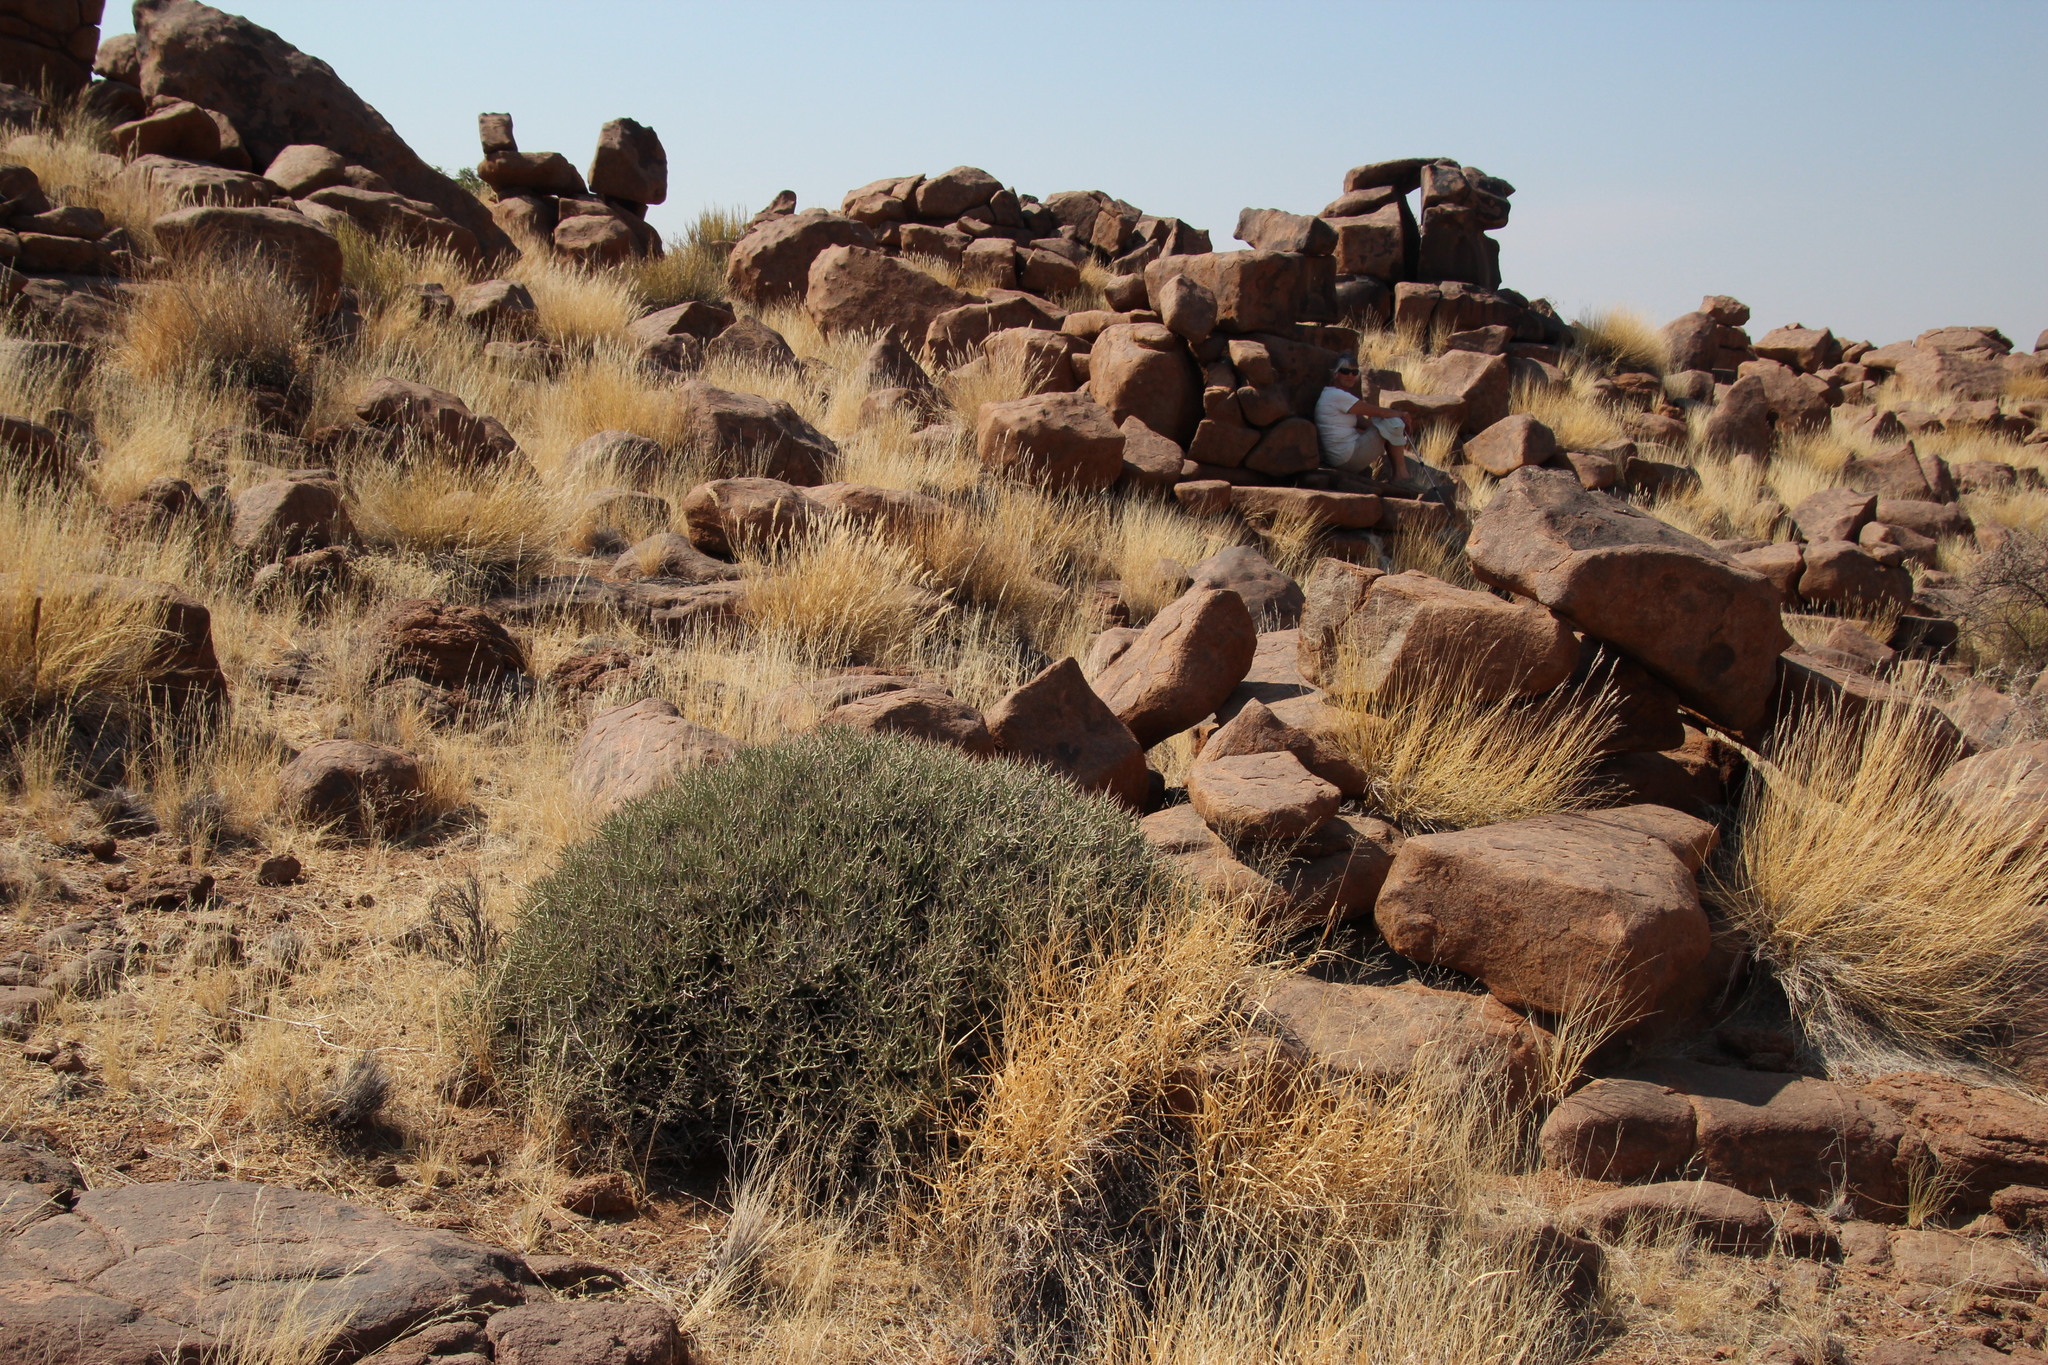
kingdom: Plantae
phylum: Tracheophyta
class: Magnoliopsida
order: Malpighiales
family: Euphorbiaceae
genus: Euphorbia
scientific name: Euphorbia lignosa
